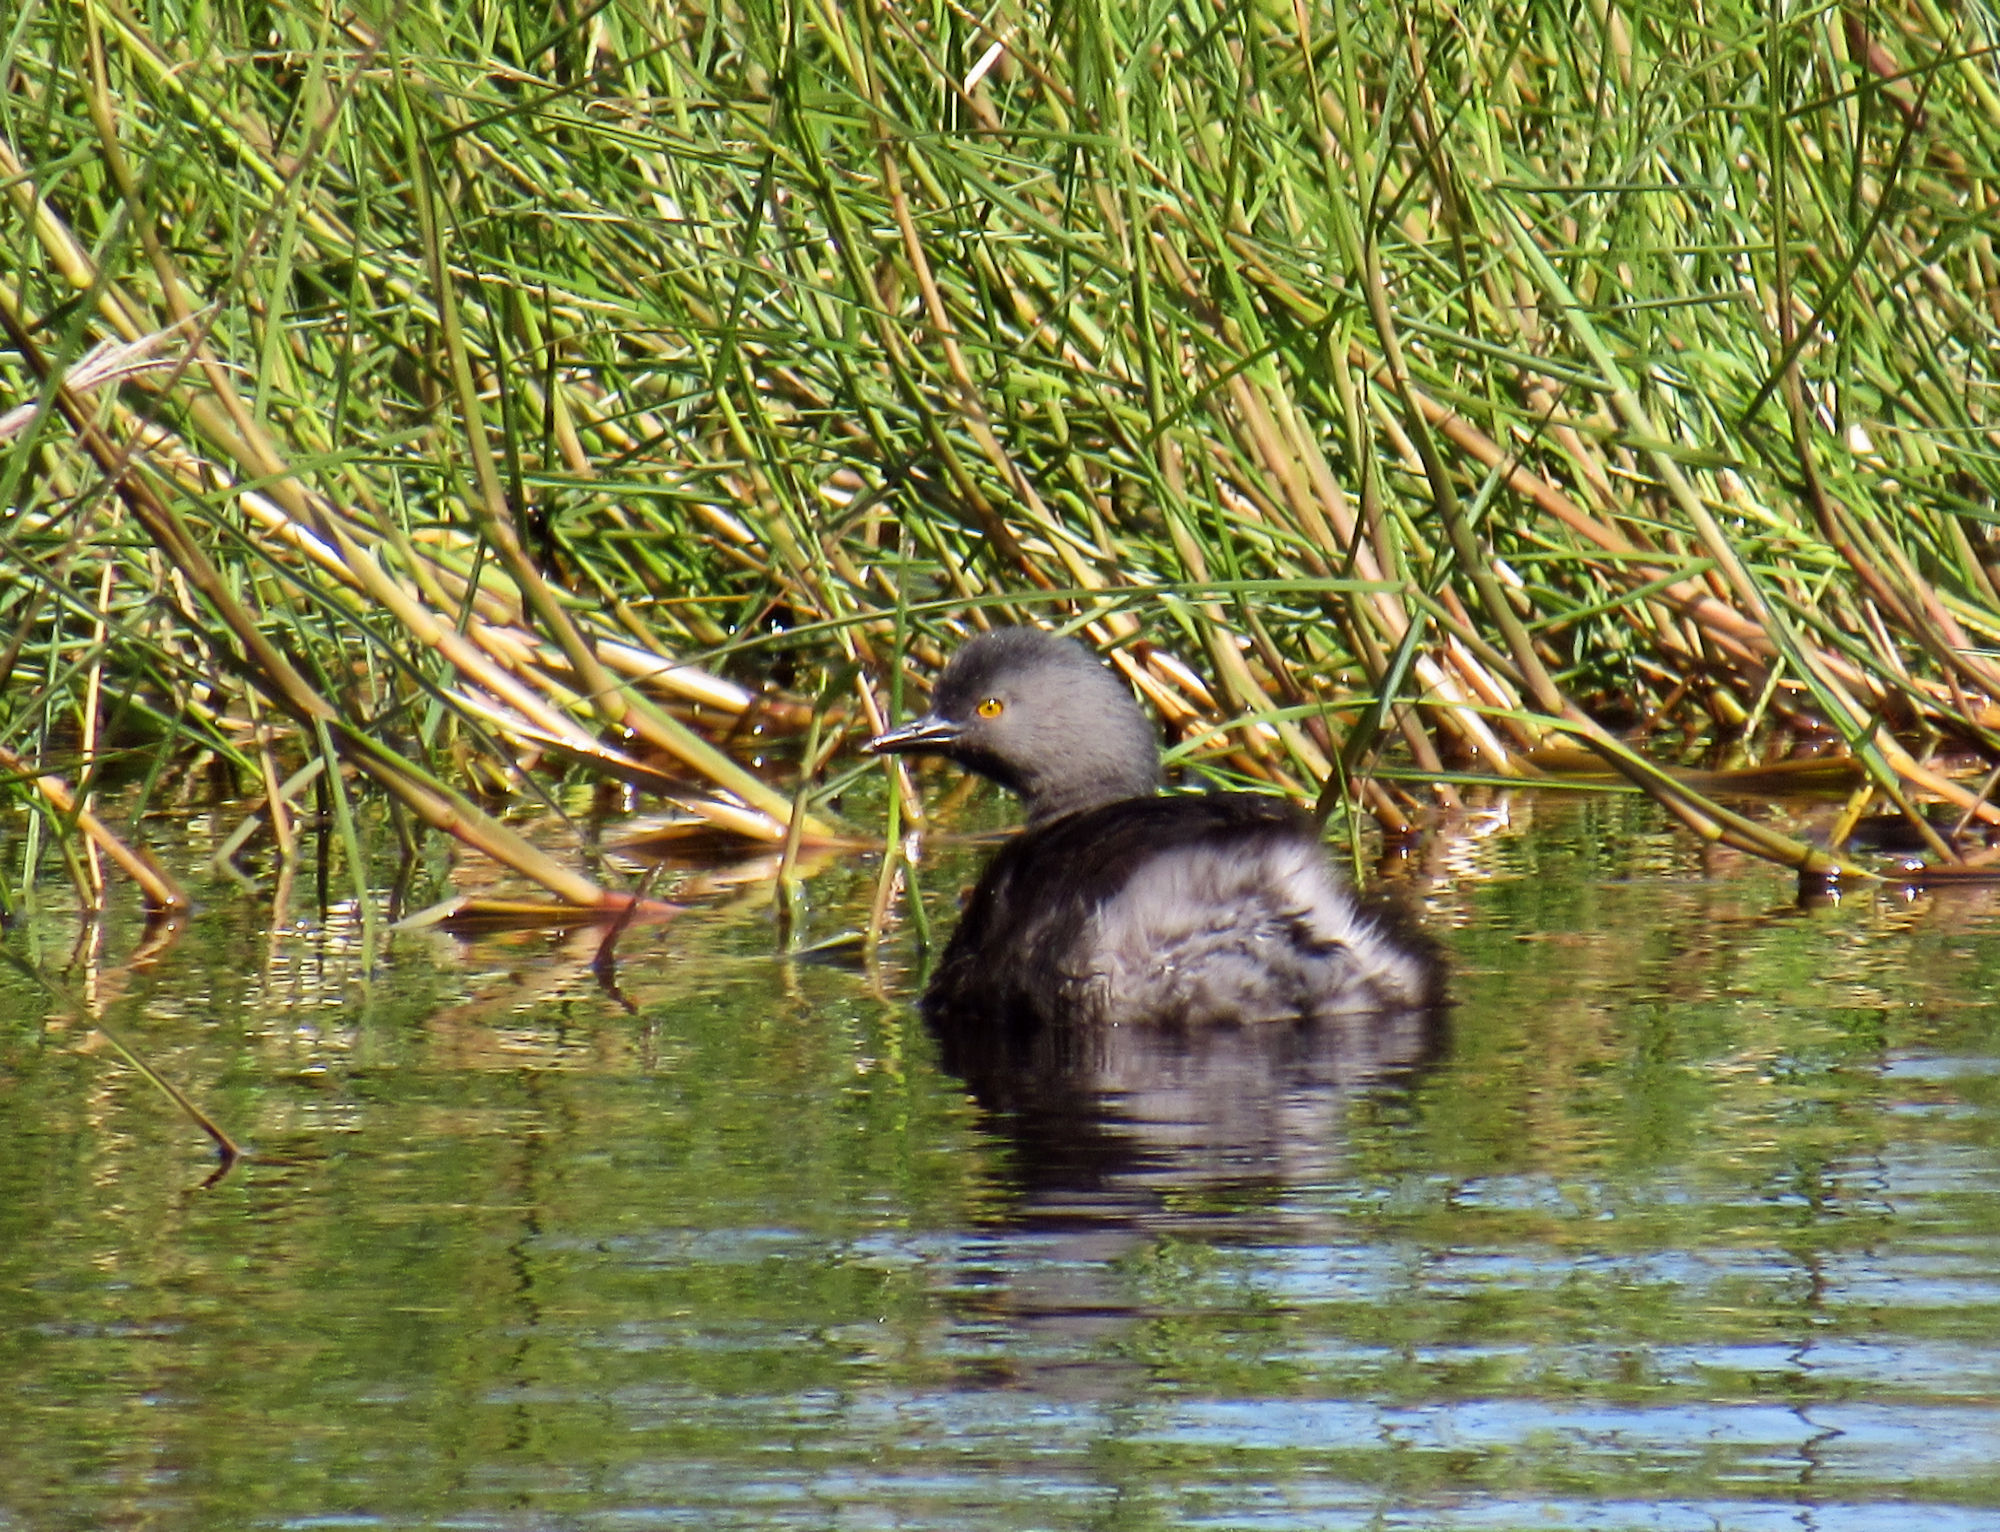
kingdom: Animalia
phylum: Chordata
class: Aves
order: Podicipediformes
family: Podicipedidae
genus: Tachybaptus
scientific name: Tachybaptus dominicus
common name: Least grebe
